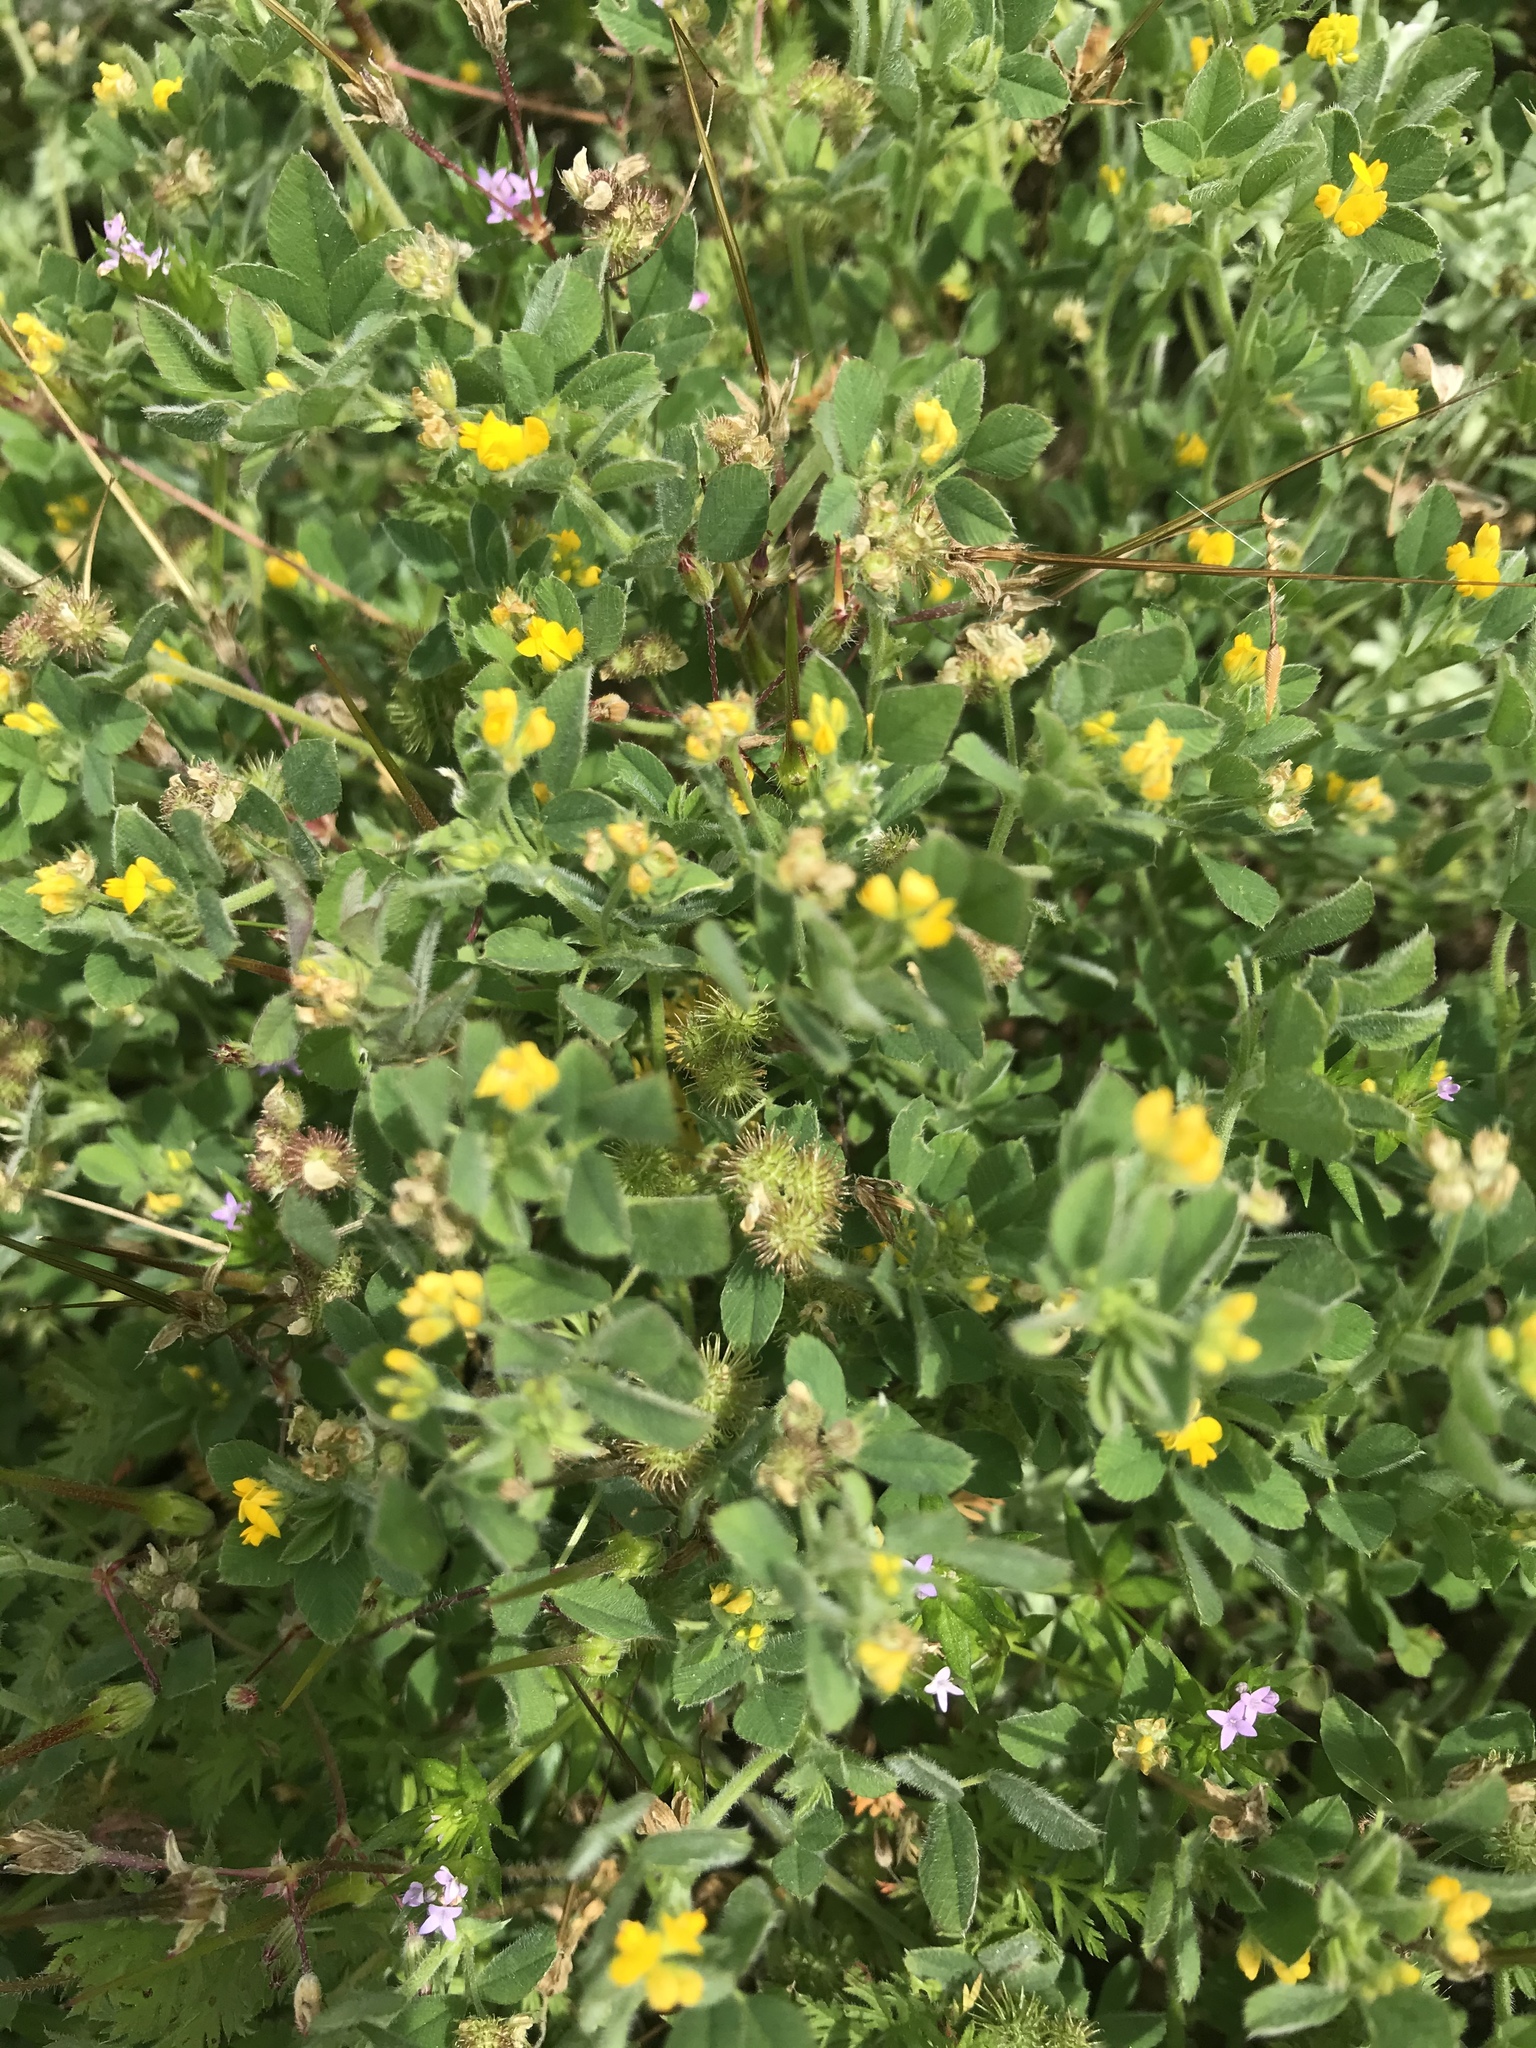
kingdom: Plantae
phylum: Tracheophyta
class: Magnoliopsida
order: Fabales
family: Fabaceae
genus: Medicago
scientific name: Medicago minima
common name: Little bur-clover
